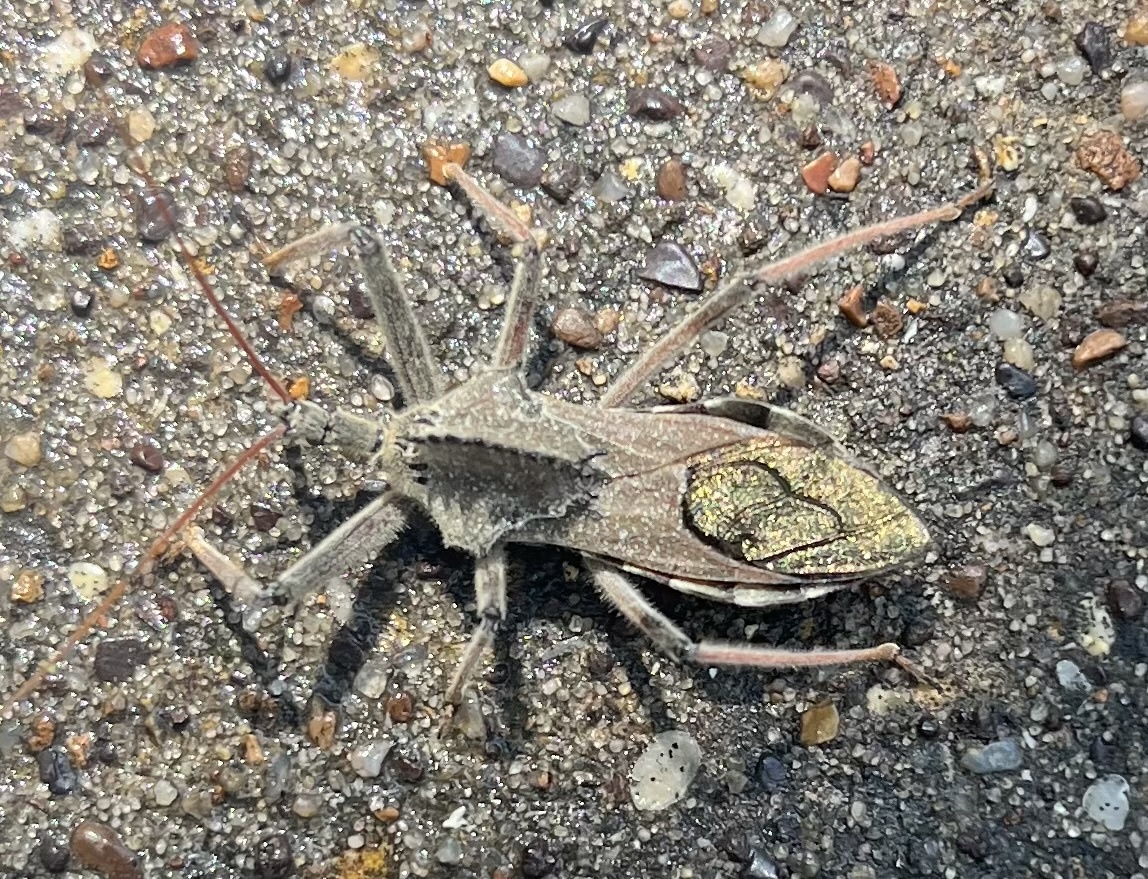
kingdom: Animalia
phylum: Arthropoda
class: Insecta
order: Hemiptera
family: Reduviidae
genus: Arilus
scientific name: Arilus cristatus
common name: North american wheel bug
